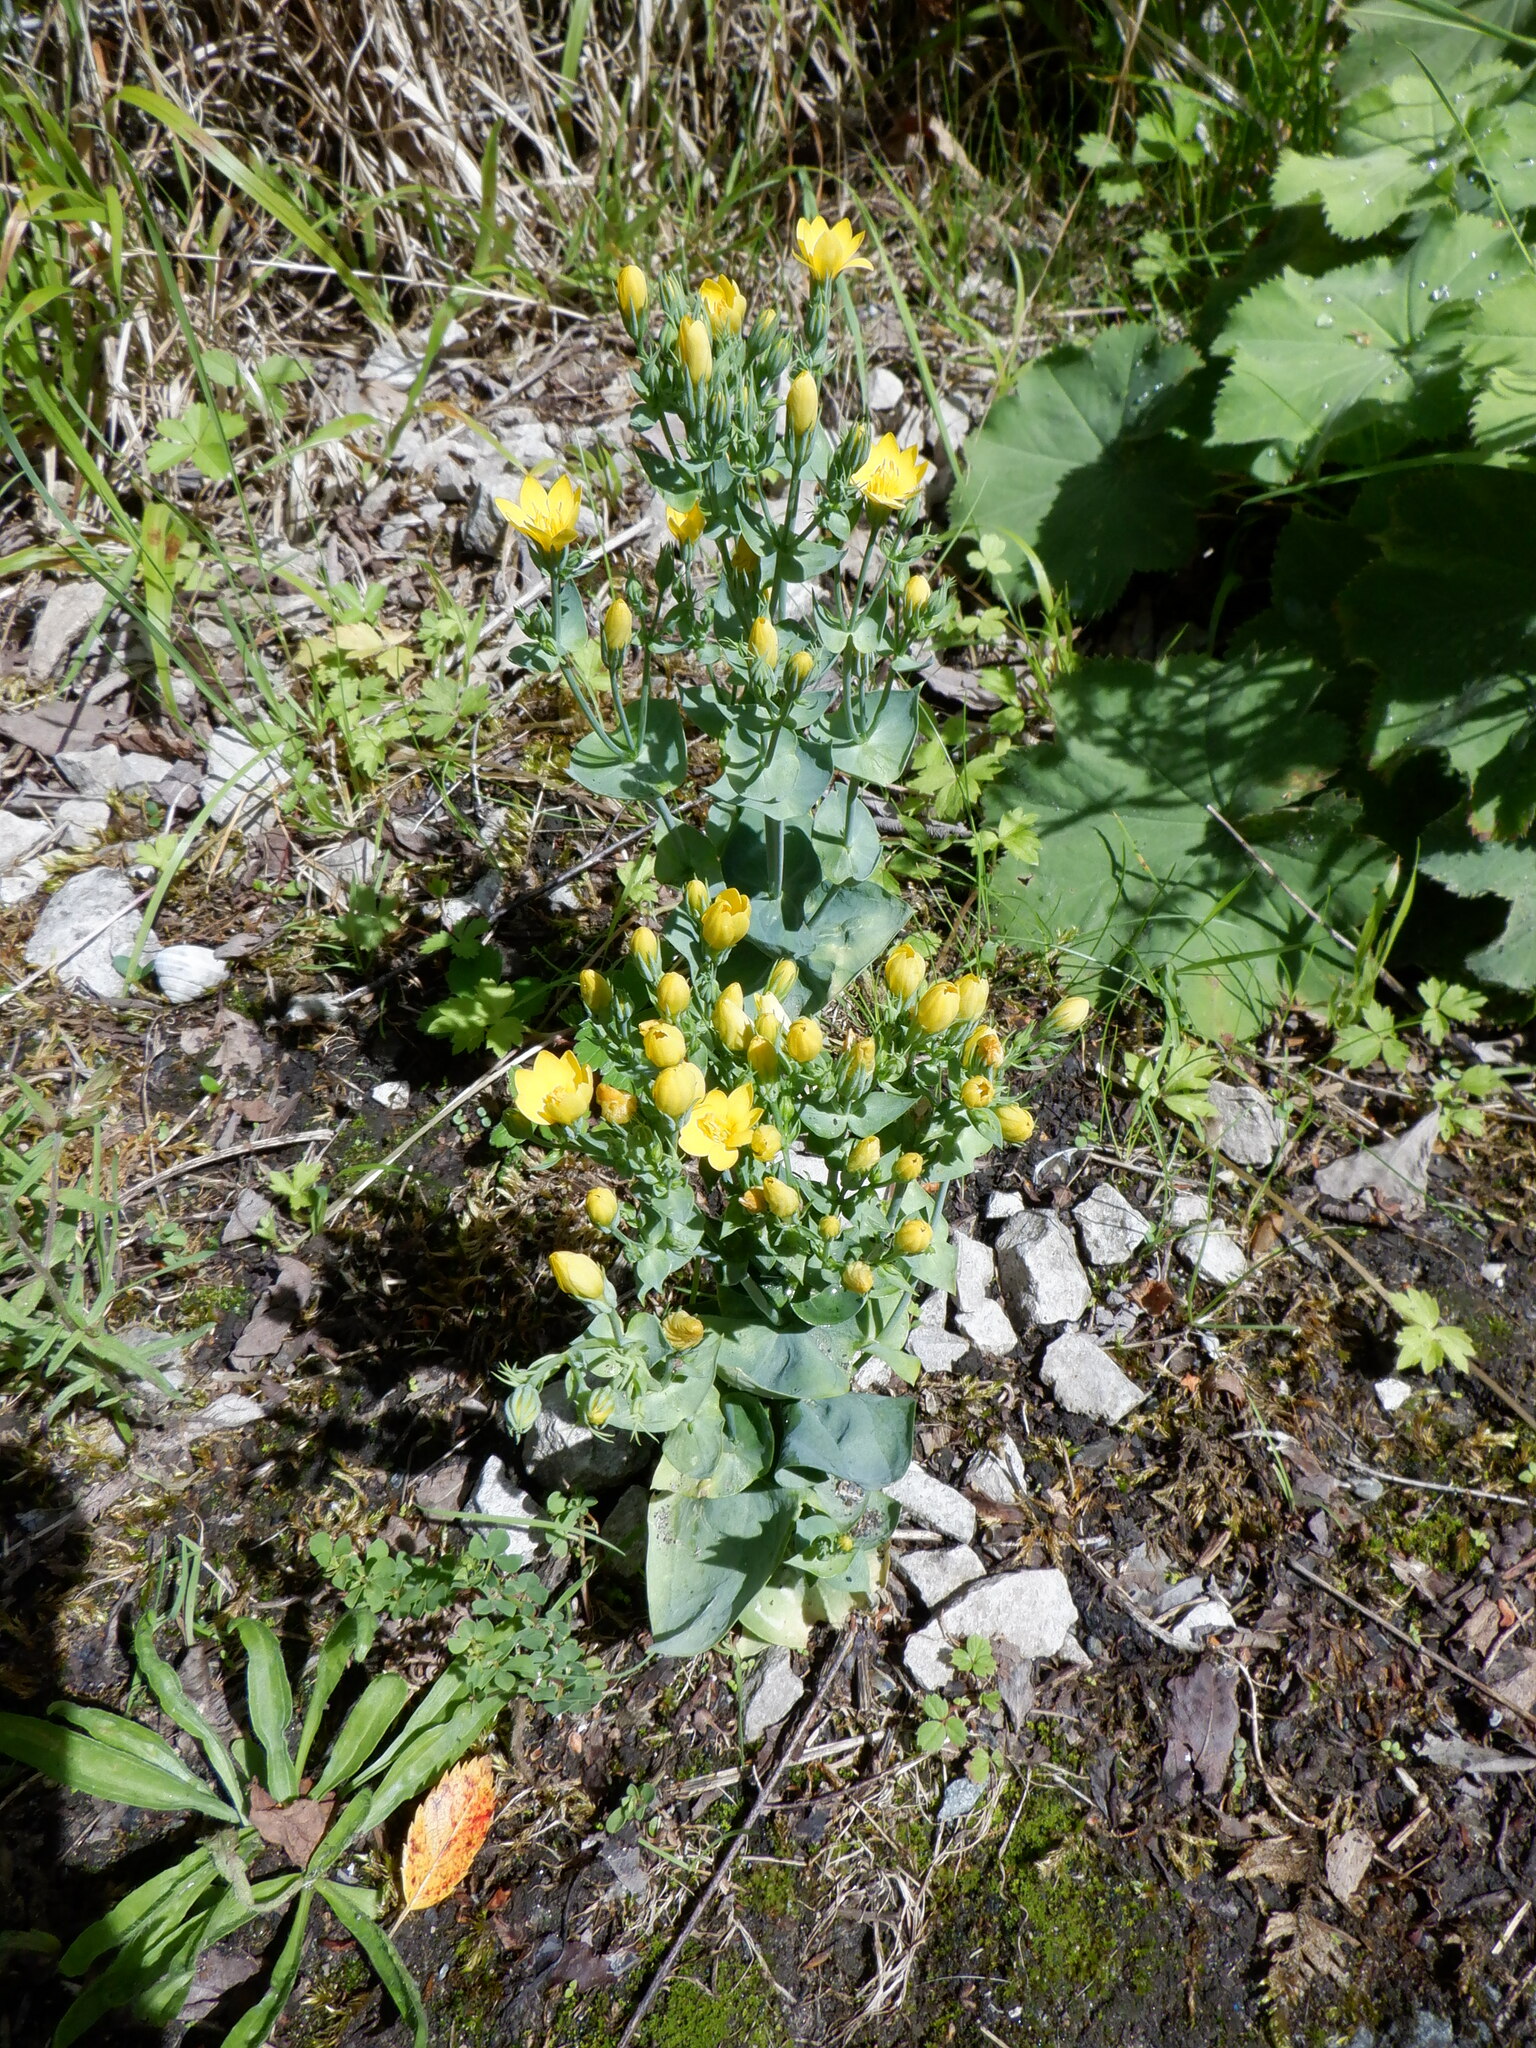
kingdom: Plantae
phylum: Tracheophyta
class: Magnoliopsida
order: Gentianales
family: Gentianaceae
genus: Blackstonia
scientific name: Blackstonia perfoliata
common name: Yellow-wort
